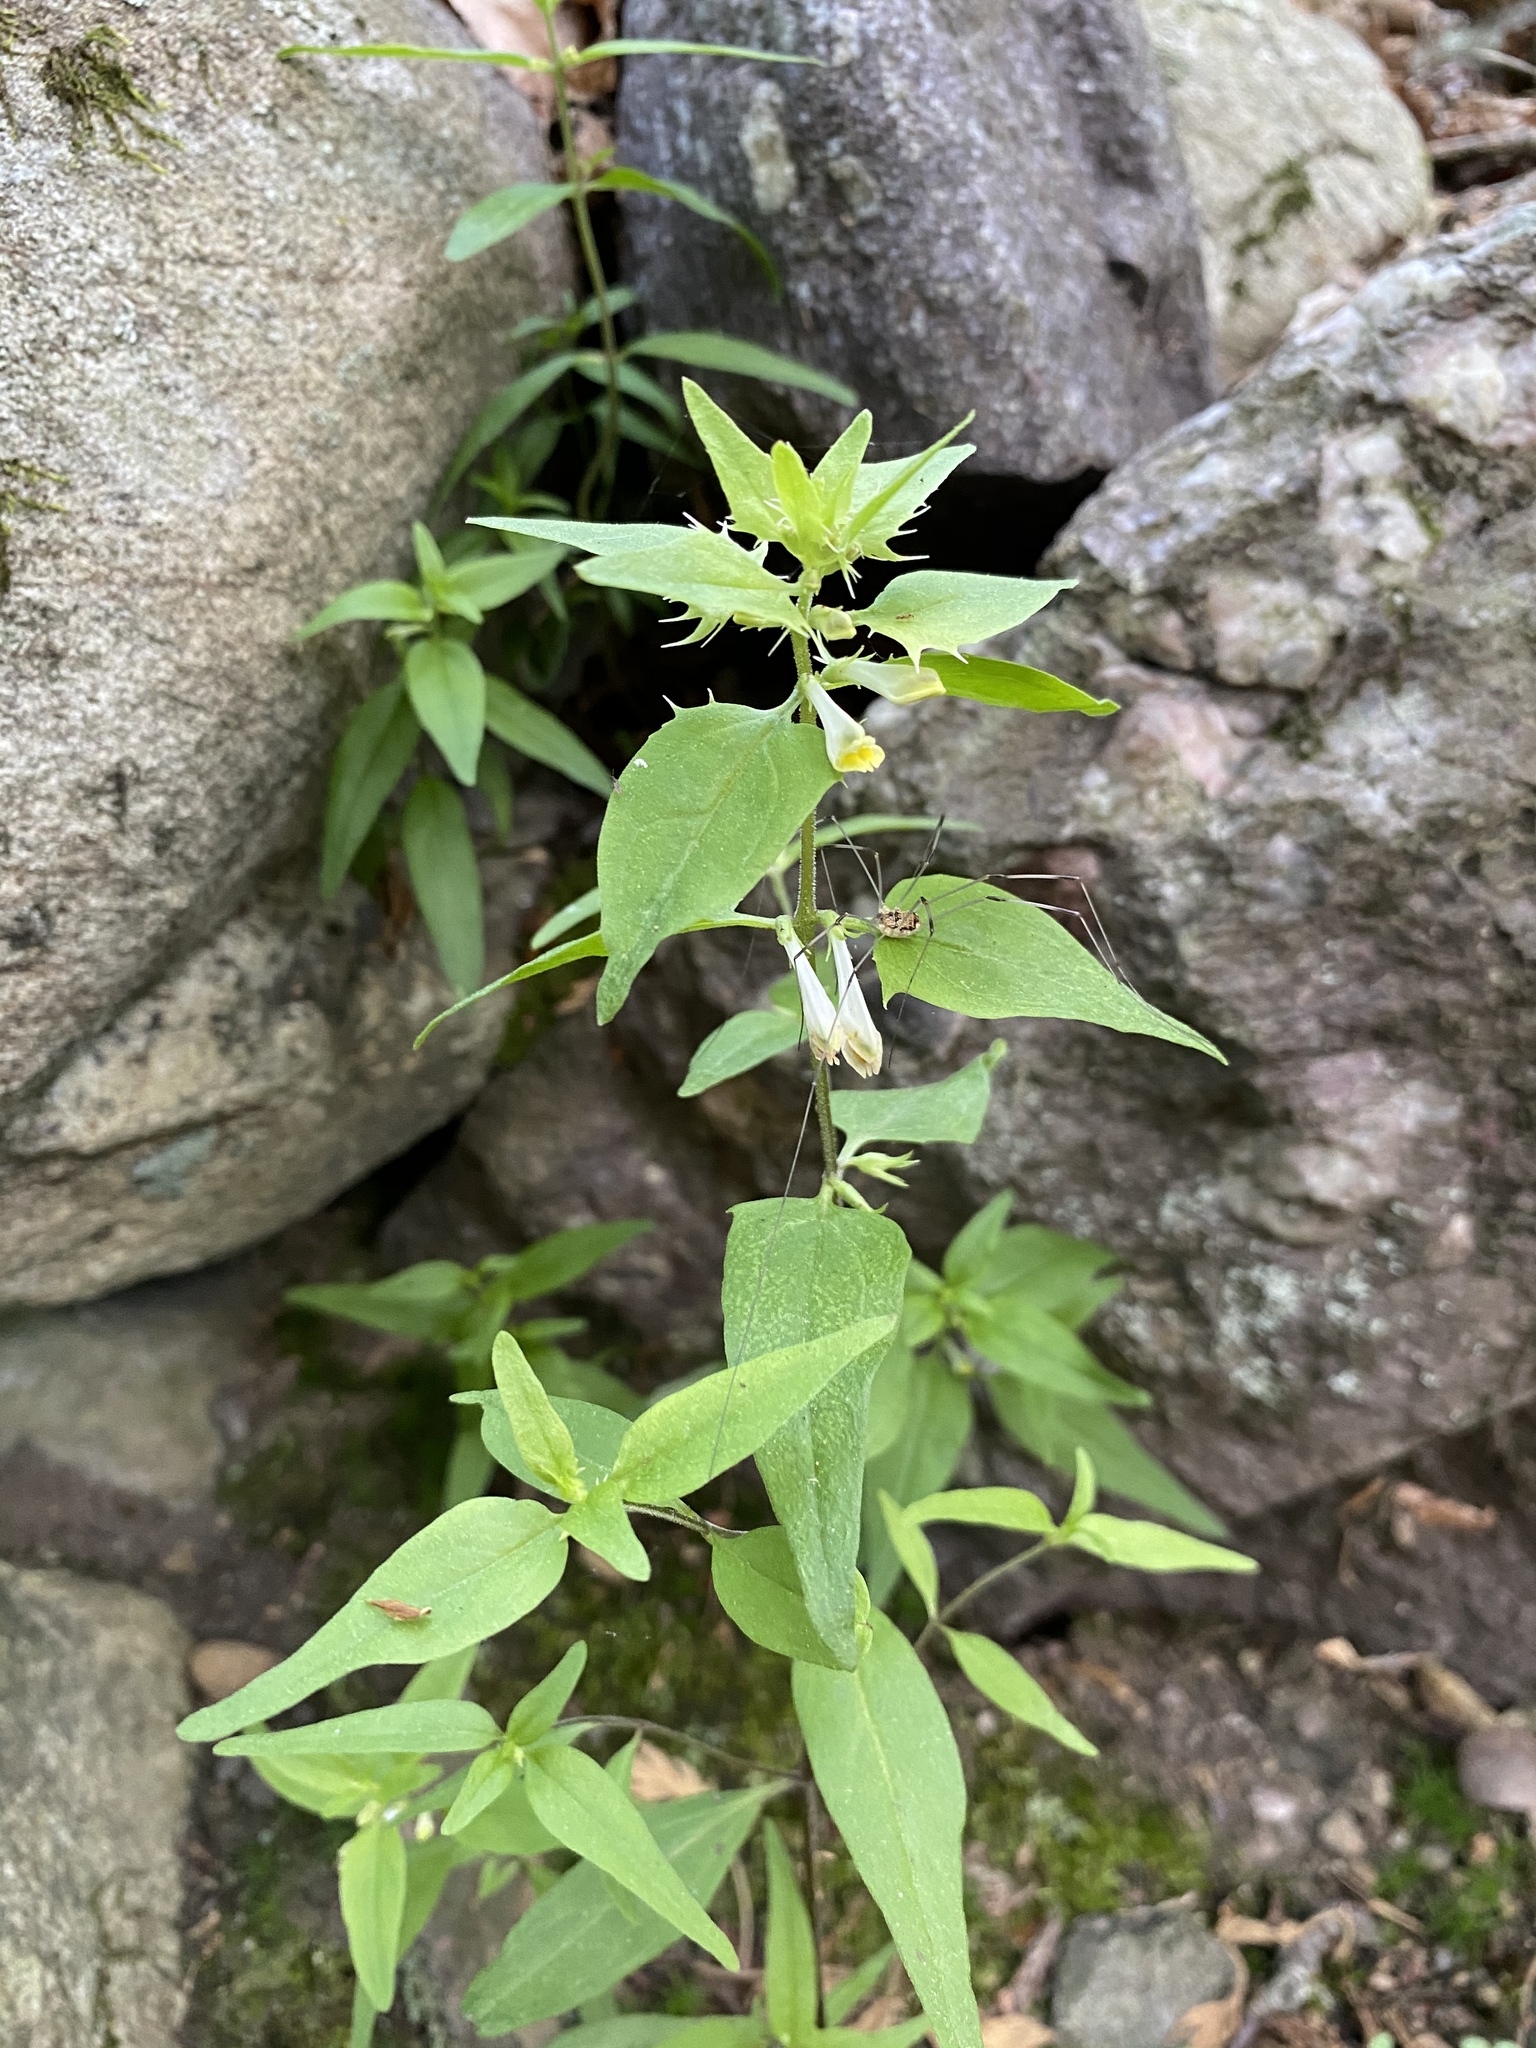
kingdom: Plantae
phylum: Tracheophyta
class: Magnoliopsida
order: Lamiales
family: Orobanchaceae
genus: Melampyrum
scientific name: Melampyrum lineare
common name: American cow-wheat
